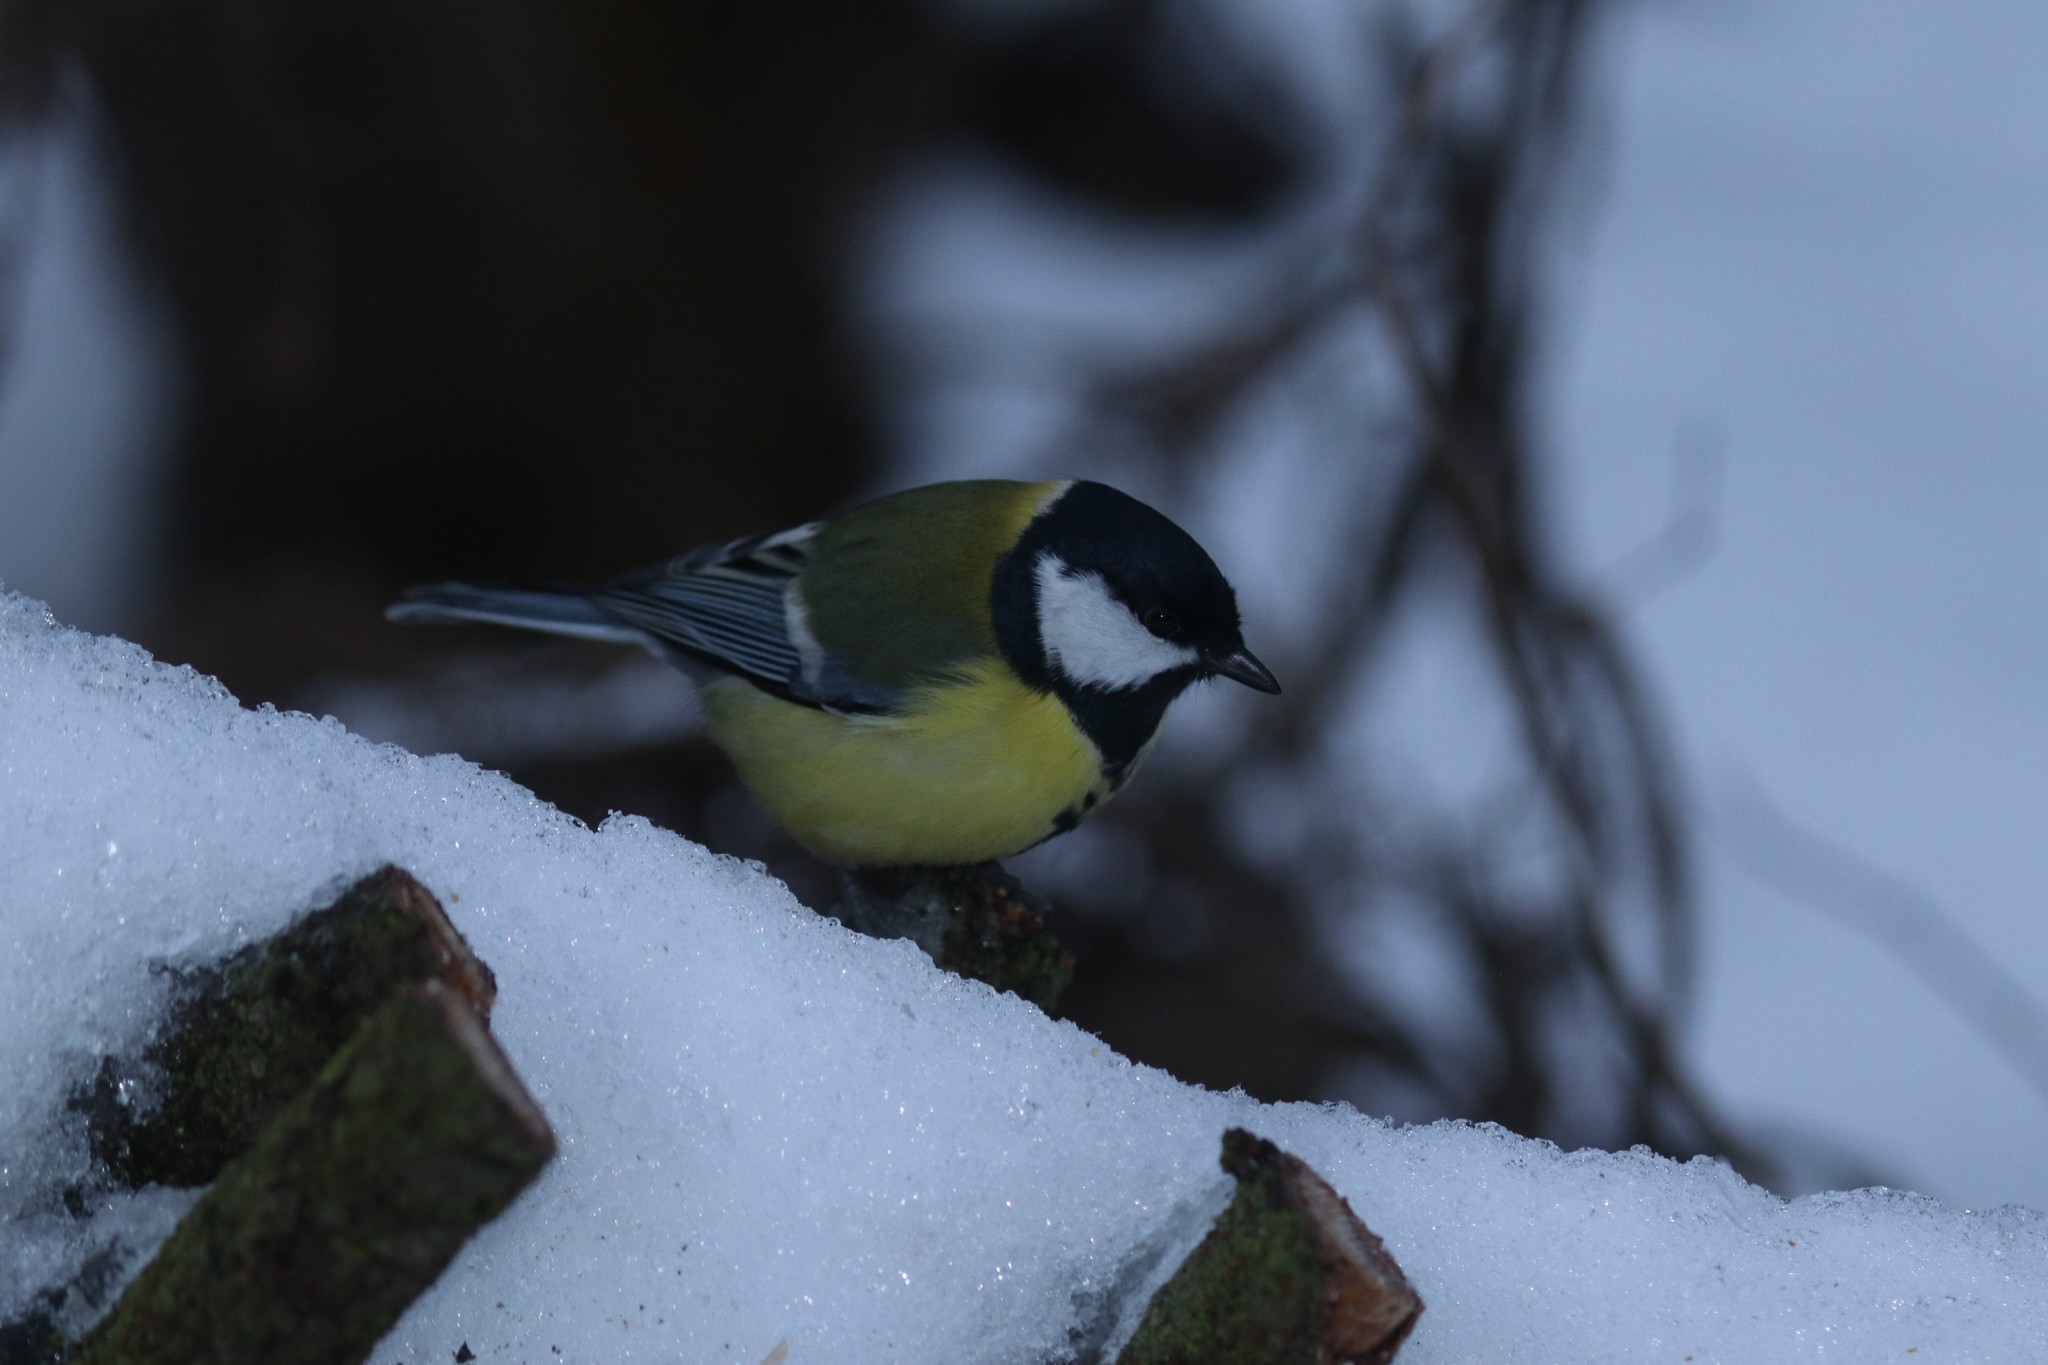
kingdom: Animalia
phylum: Chordata
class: Aves
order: Passeriformes
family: Paridae
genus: Parus
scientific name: Parus major
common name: Great tit
